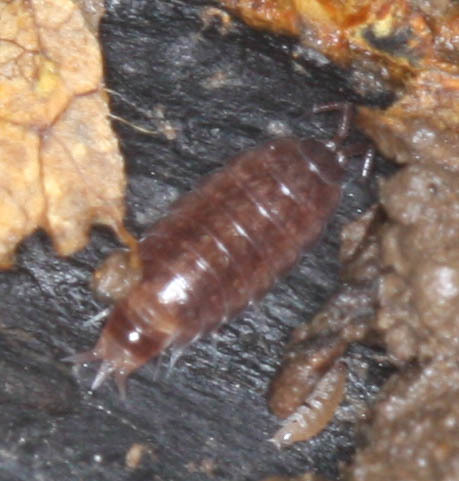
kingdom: Animalia
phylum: Arthropoda
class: Malacostraca
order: Isopoda
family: Trichoniscidae
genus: Hyloniscus
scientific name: Hyloniscus riparius
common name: Isopod
